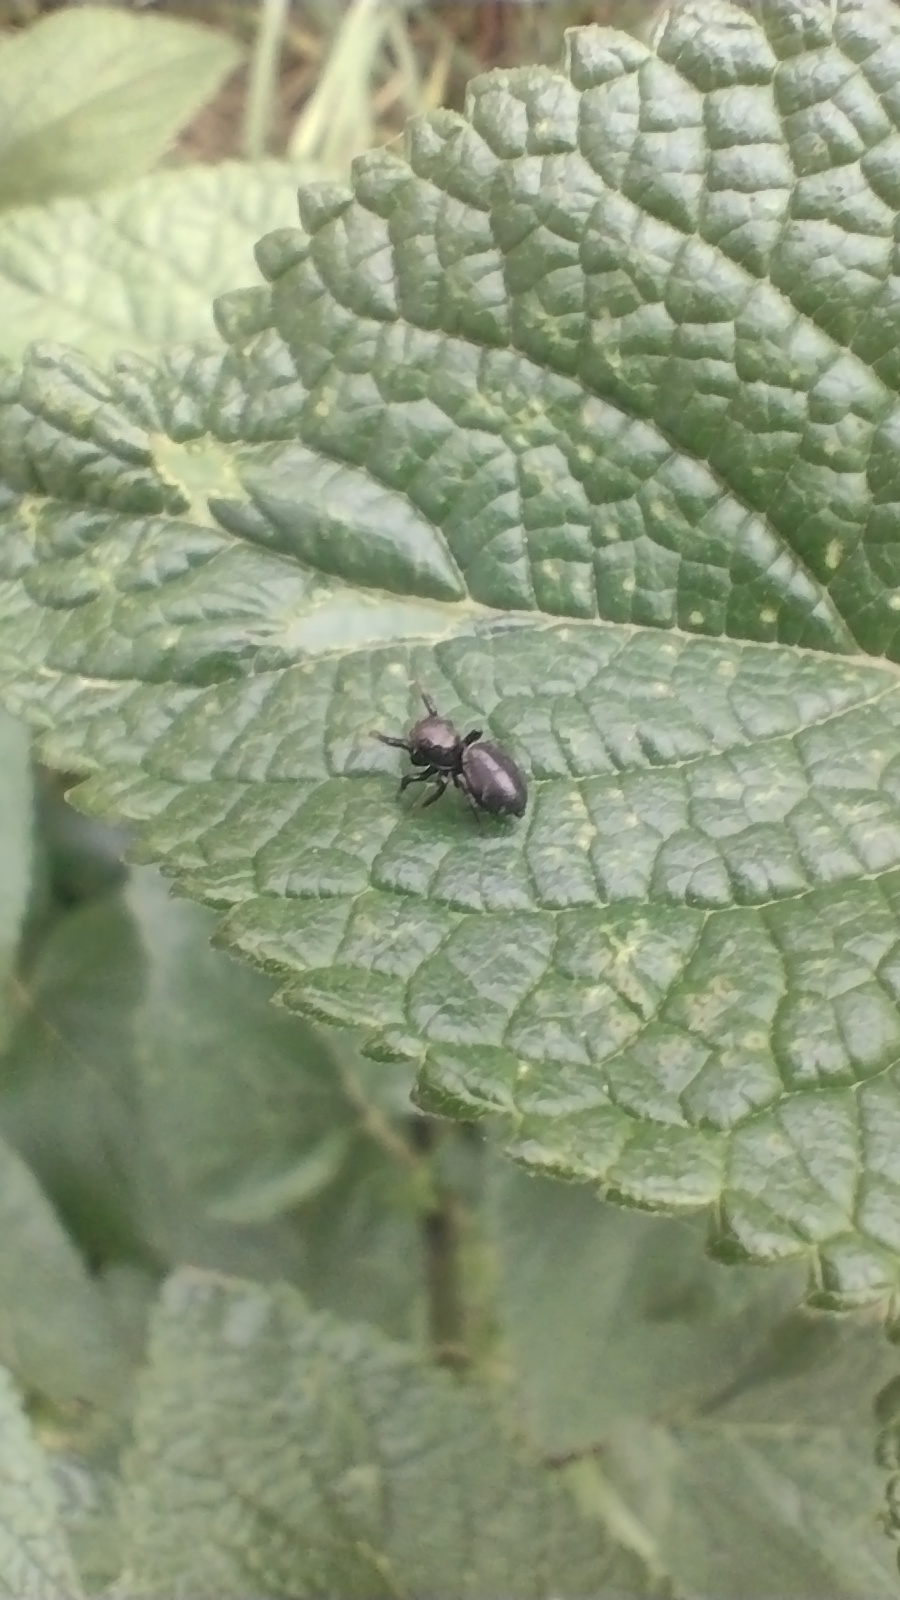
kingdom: Animalia
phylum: Arthropoda
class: Arachnida
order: Araneae
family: Salticidae
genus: Phiale
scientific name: Phiale roburifoliata
